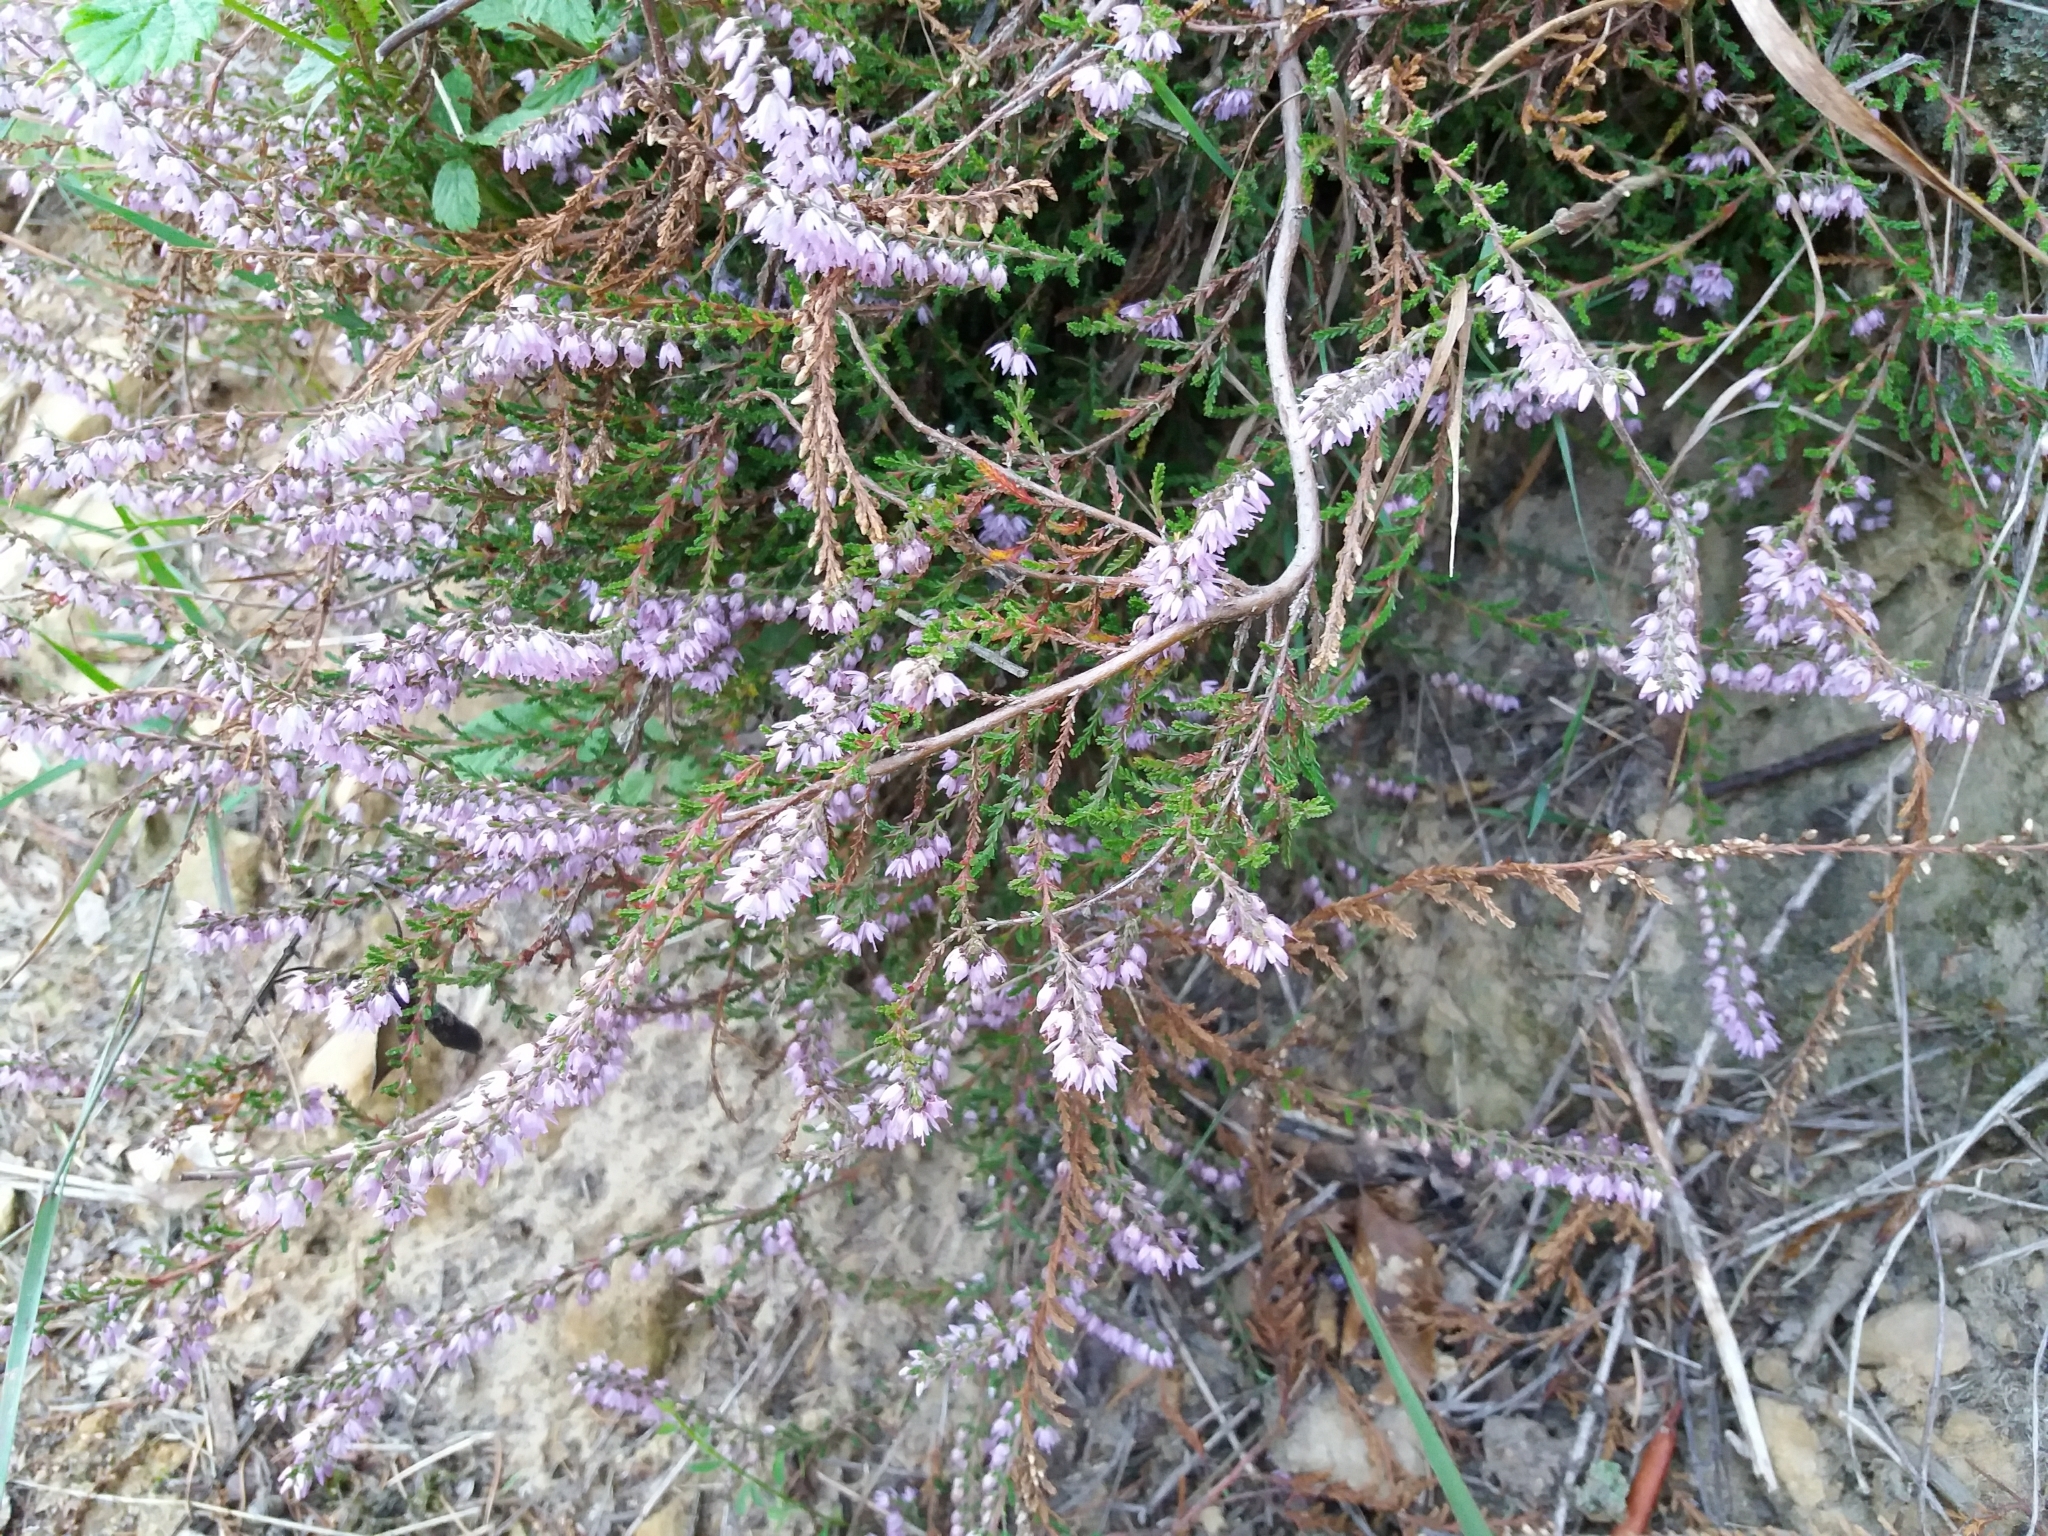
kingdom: Plantae
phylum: Tracheophyta
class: Magnoliopsida
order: Ericales
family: Ericaceae
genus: Calluna
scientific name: Calluna vulgaris
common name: Heather
